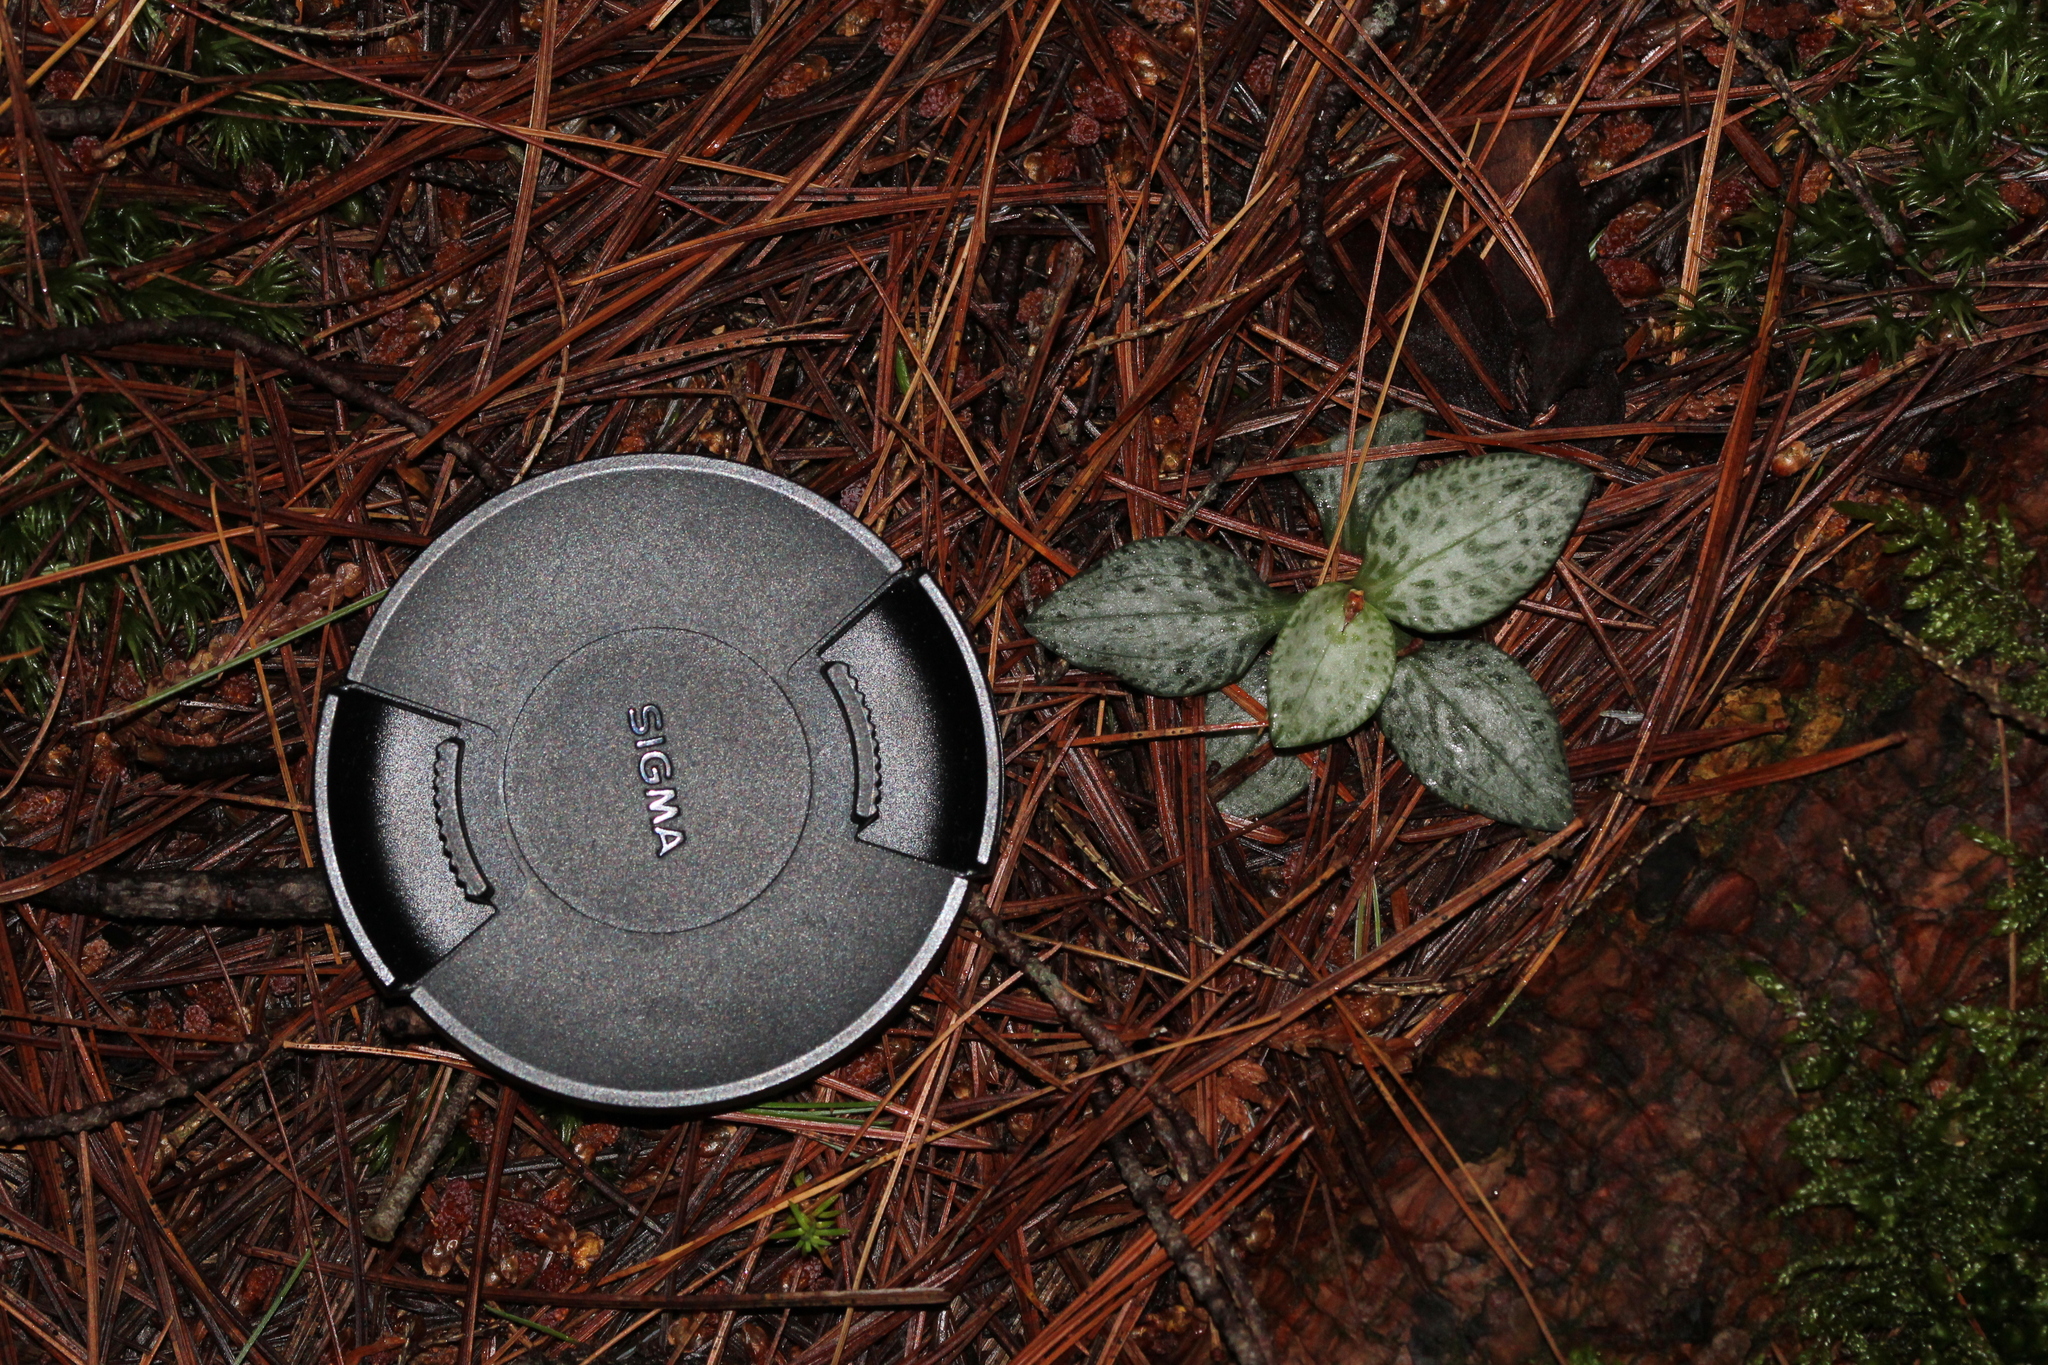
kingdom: Plantae
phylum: Tracheophyta
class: Liliopsida
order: Asparagales
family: Orchidaceae
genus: Goodyera
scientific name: Goodyera tesselata
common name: Checkered rattlesnake-plantain
